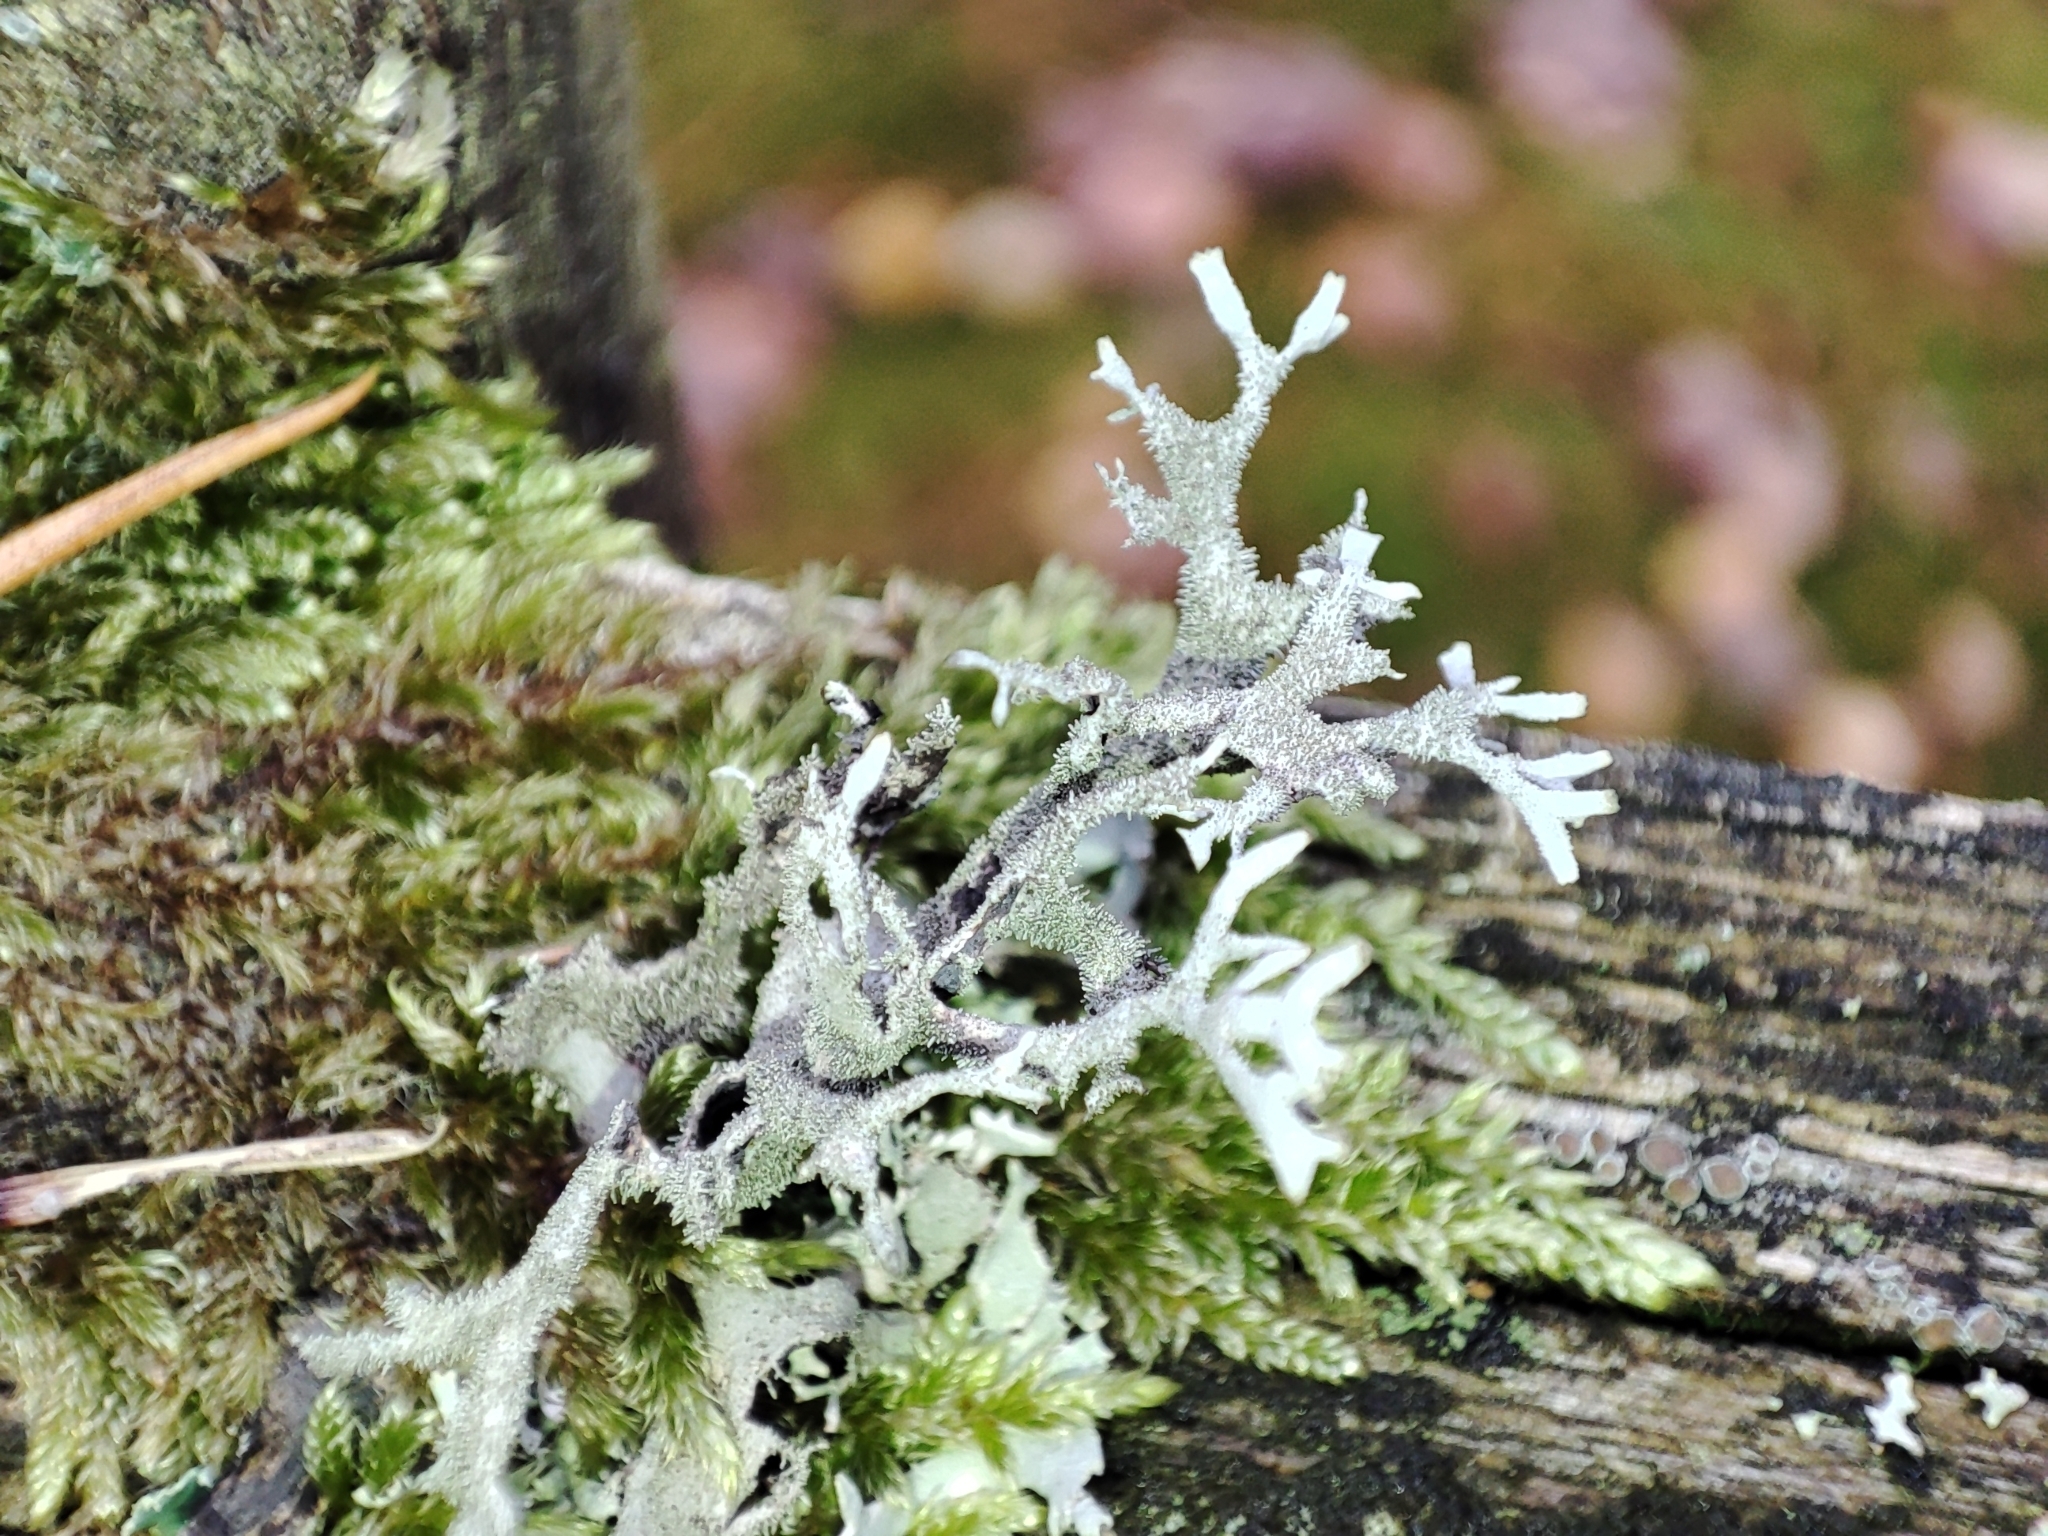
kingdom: Fungi
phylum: Ascomycota
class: Lecanoromycetes
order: Lecanorales
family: Parmeliaceae
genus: Pseudevernia
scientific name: Pseudevernia furfuracea
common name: Tree moss
